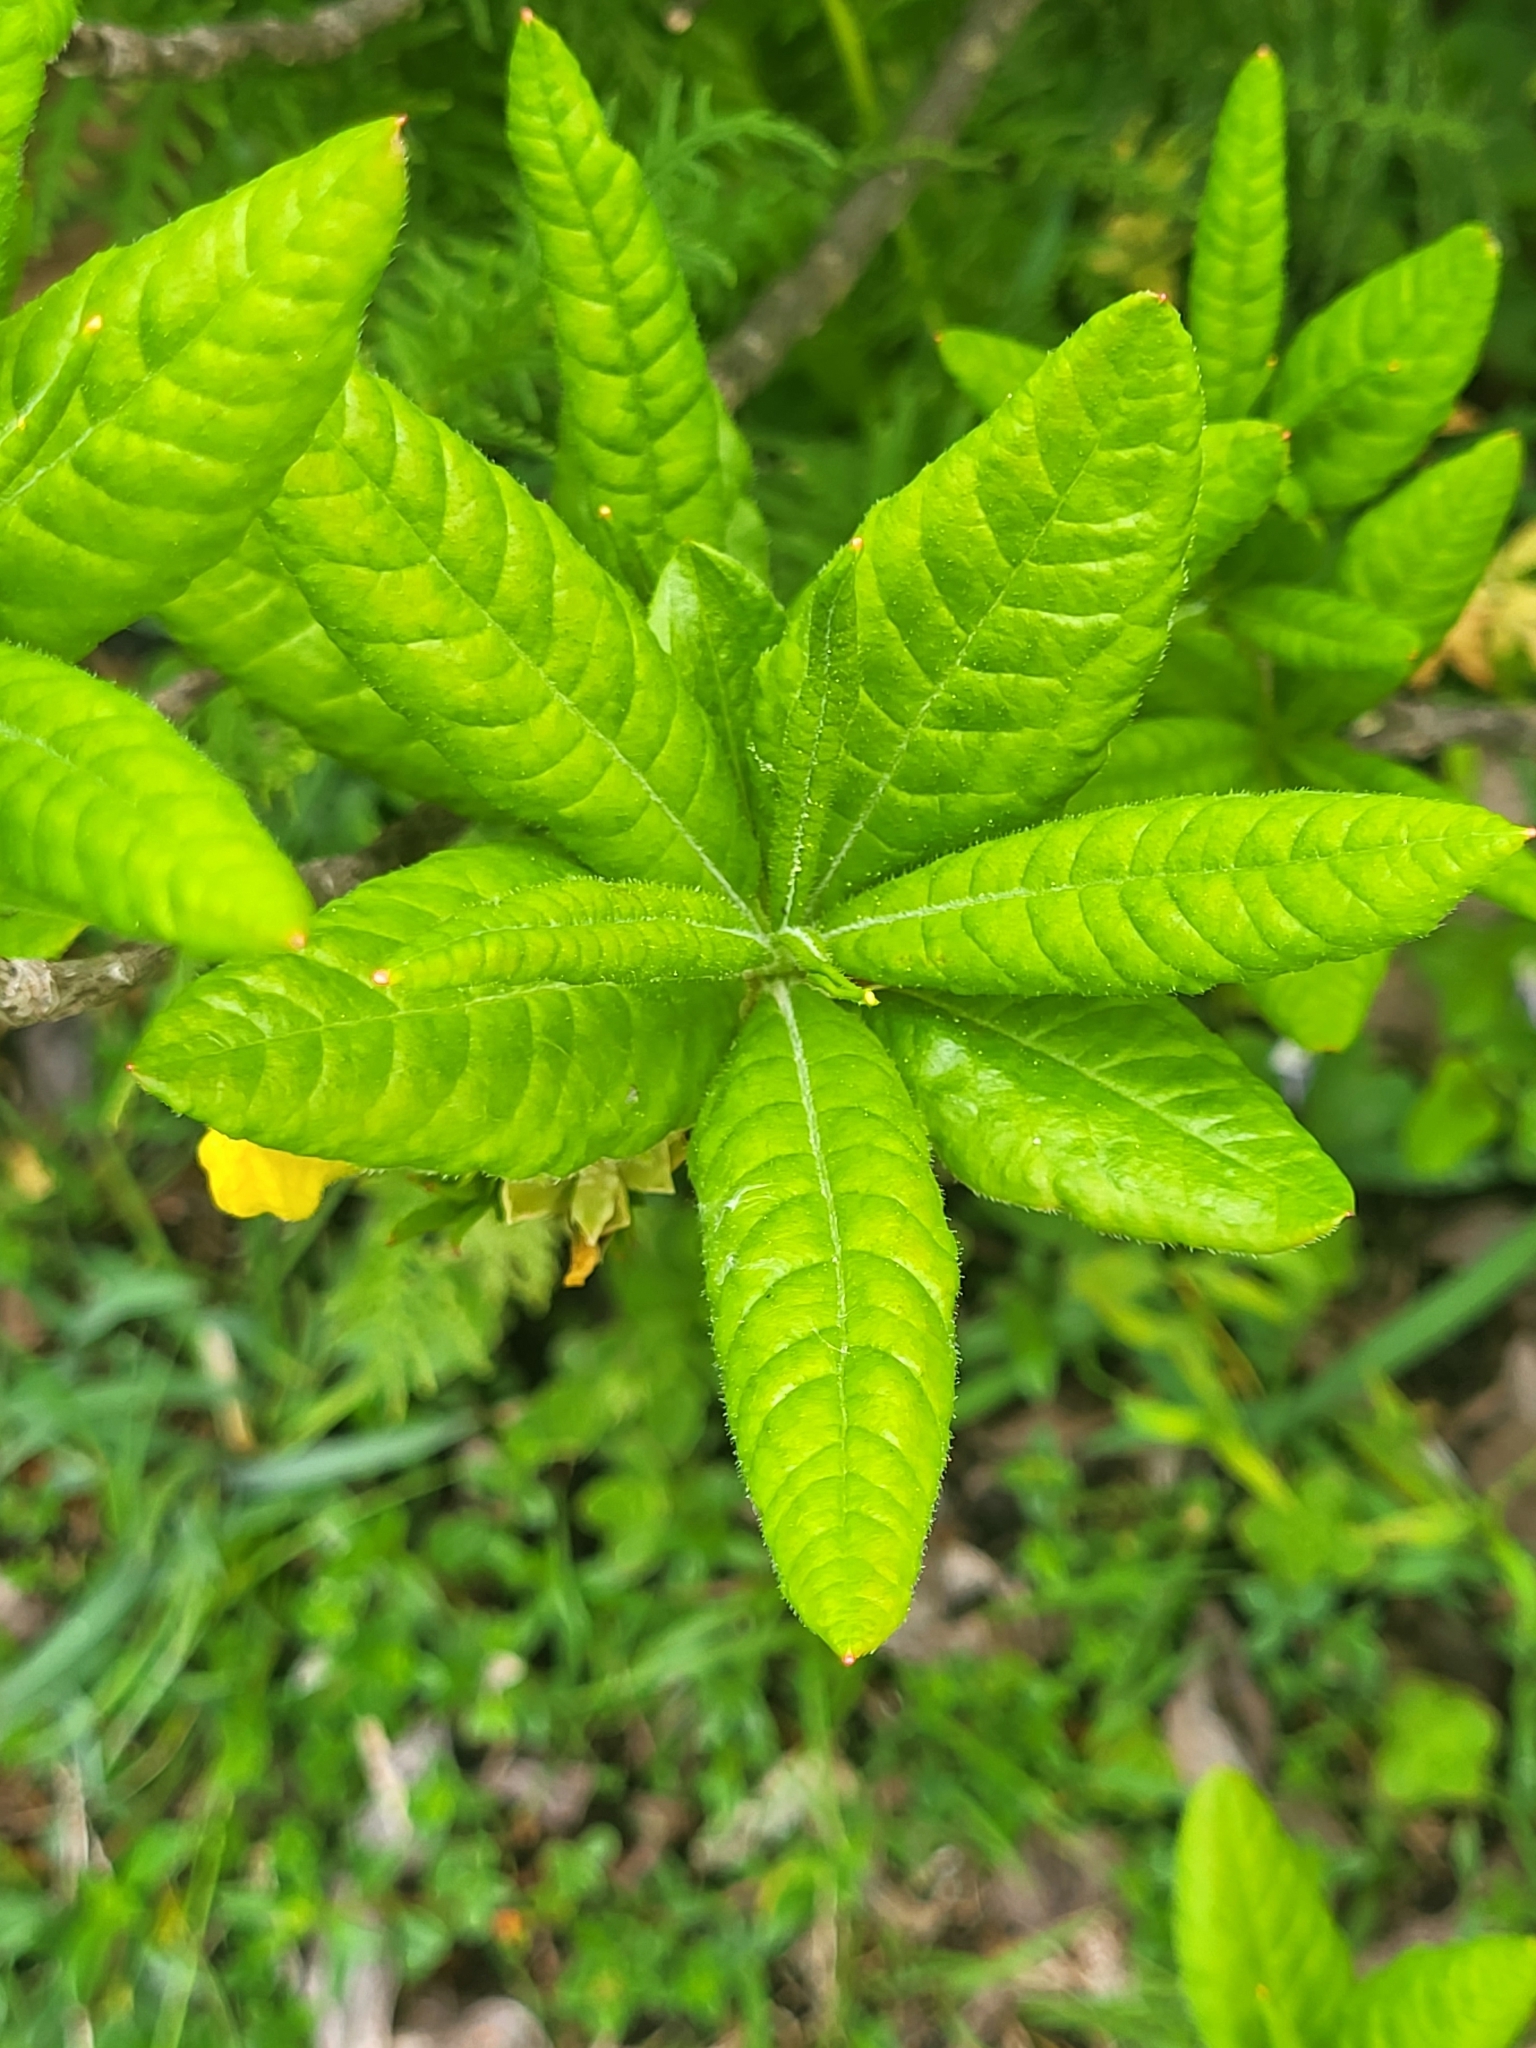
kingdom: Plantae
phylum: Tracheophyta
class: Magnoliopsida
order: Ericales
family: Ericaceae
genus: Rhododendron
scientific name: Rhododendron luteum
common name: Yellow azalea
